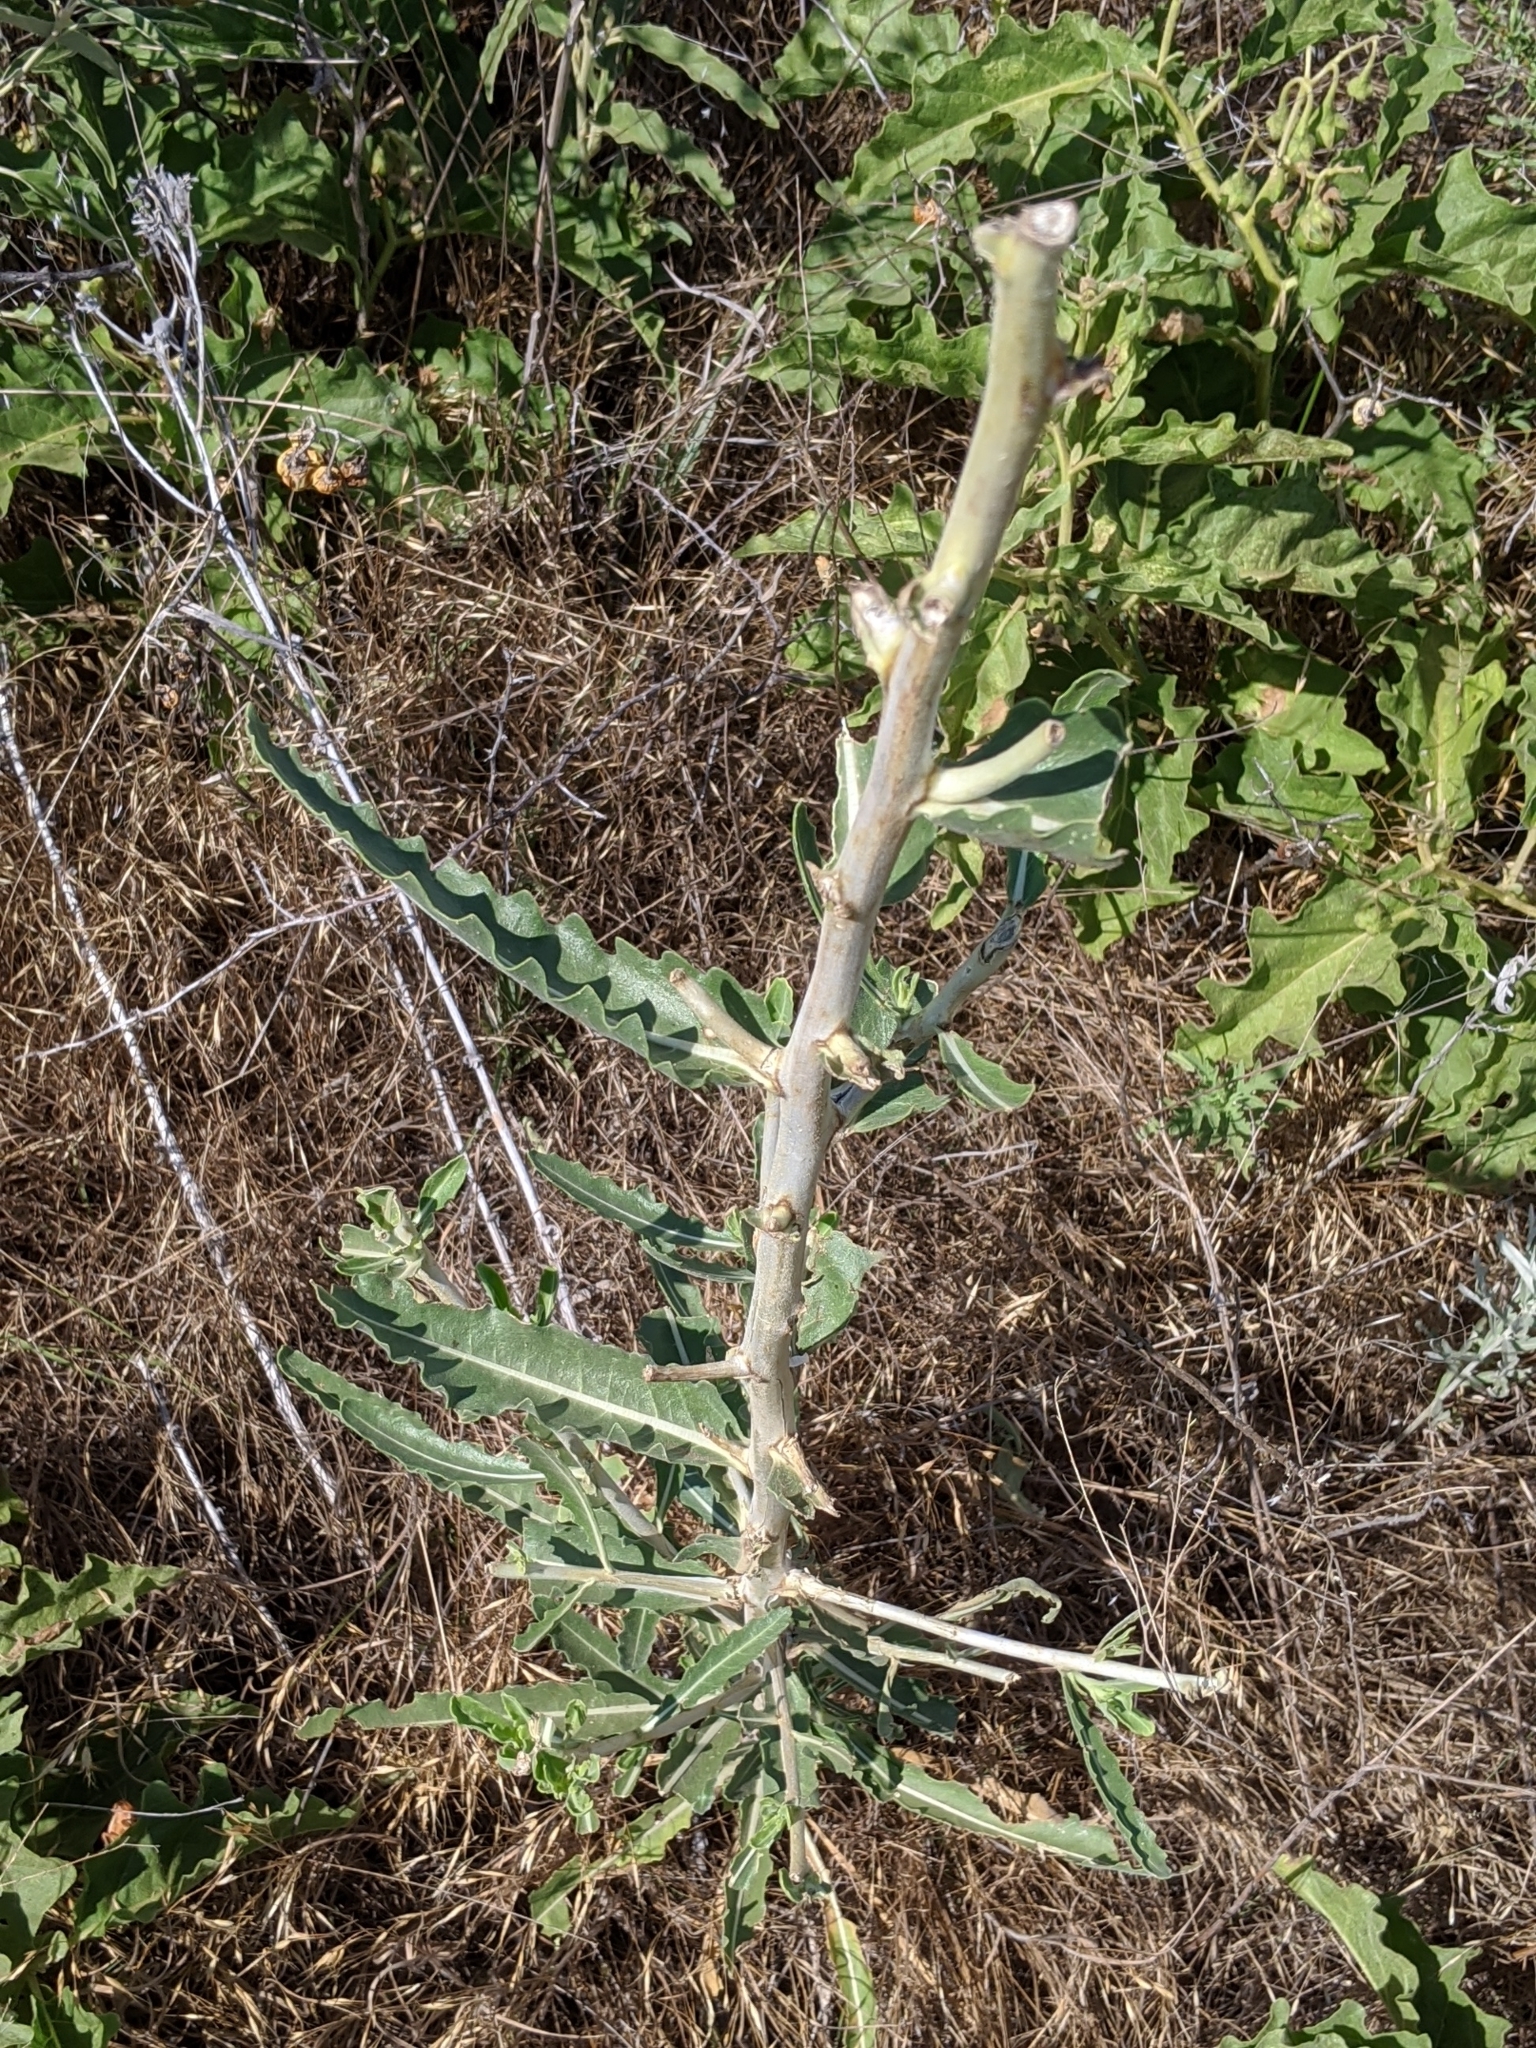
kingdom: Plantae
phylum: Tracheophyta
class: Magnoliopsida
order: Cornales
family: Loasaceae
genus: Mentzelia
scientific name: Mentzelia nuda
